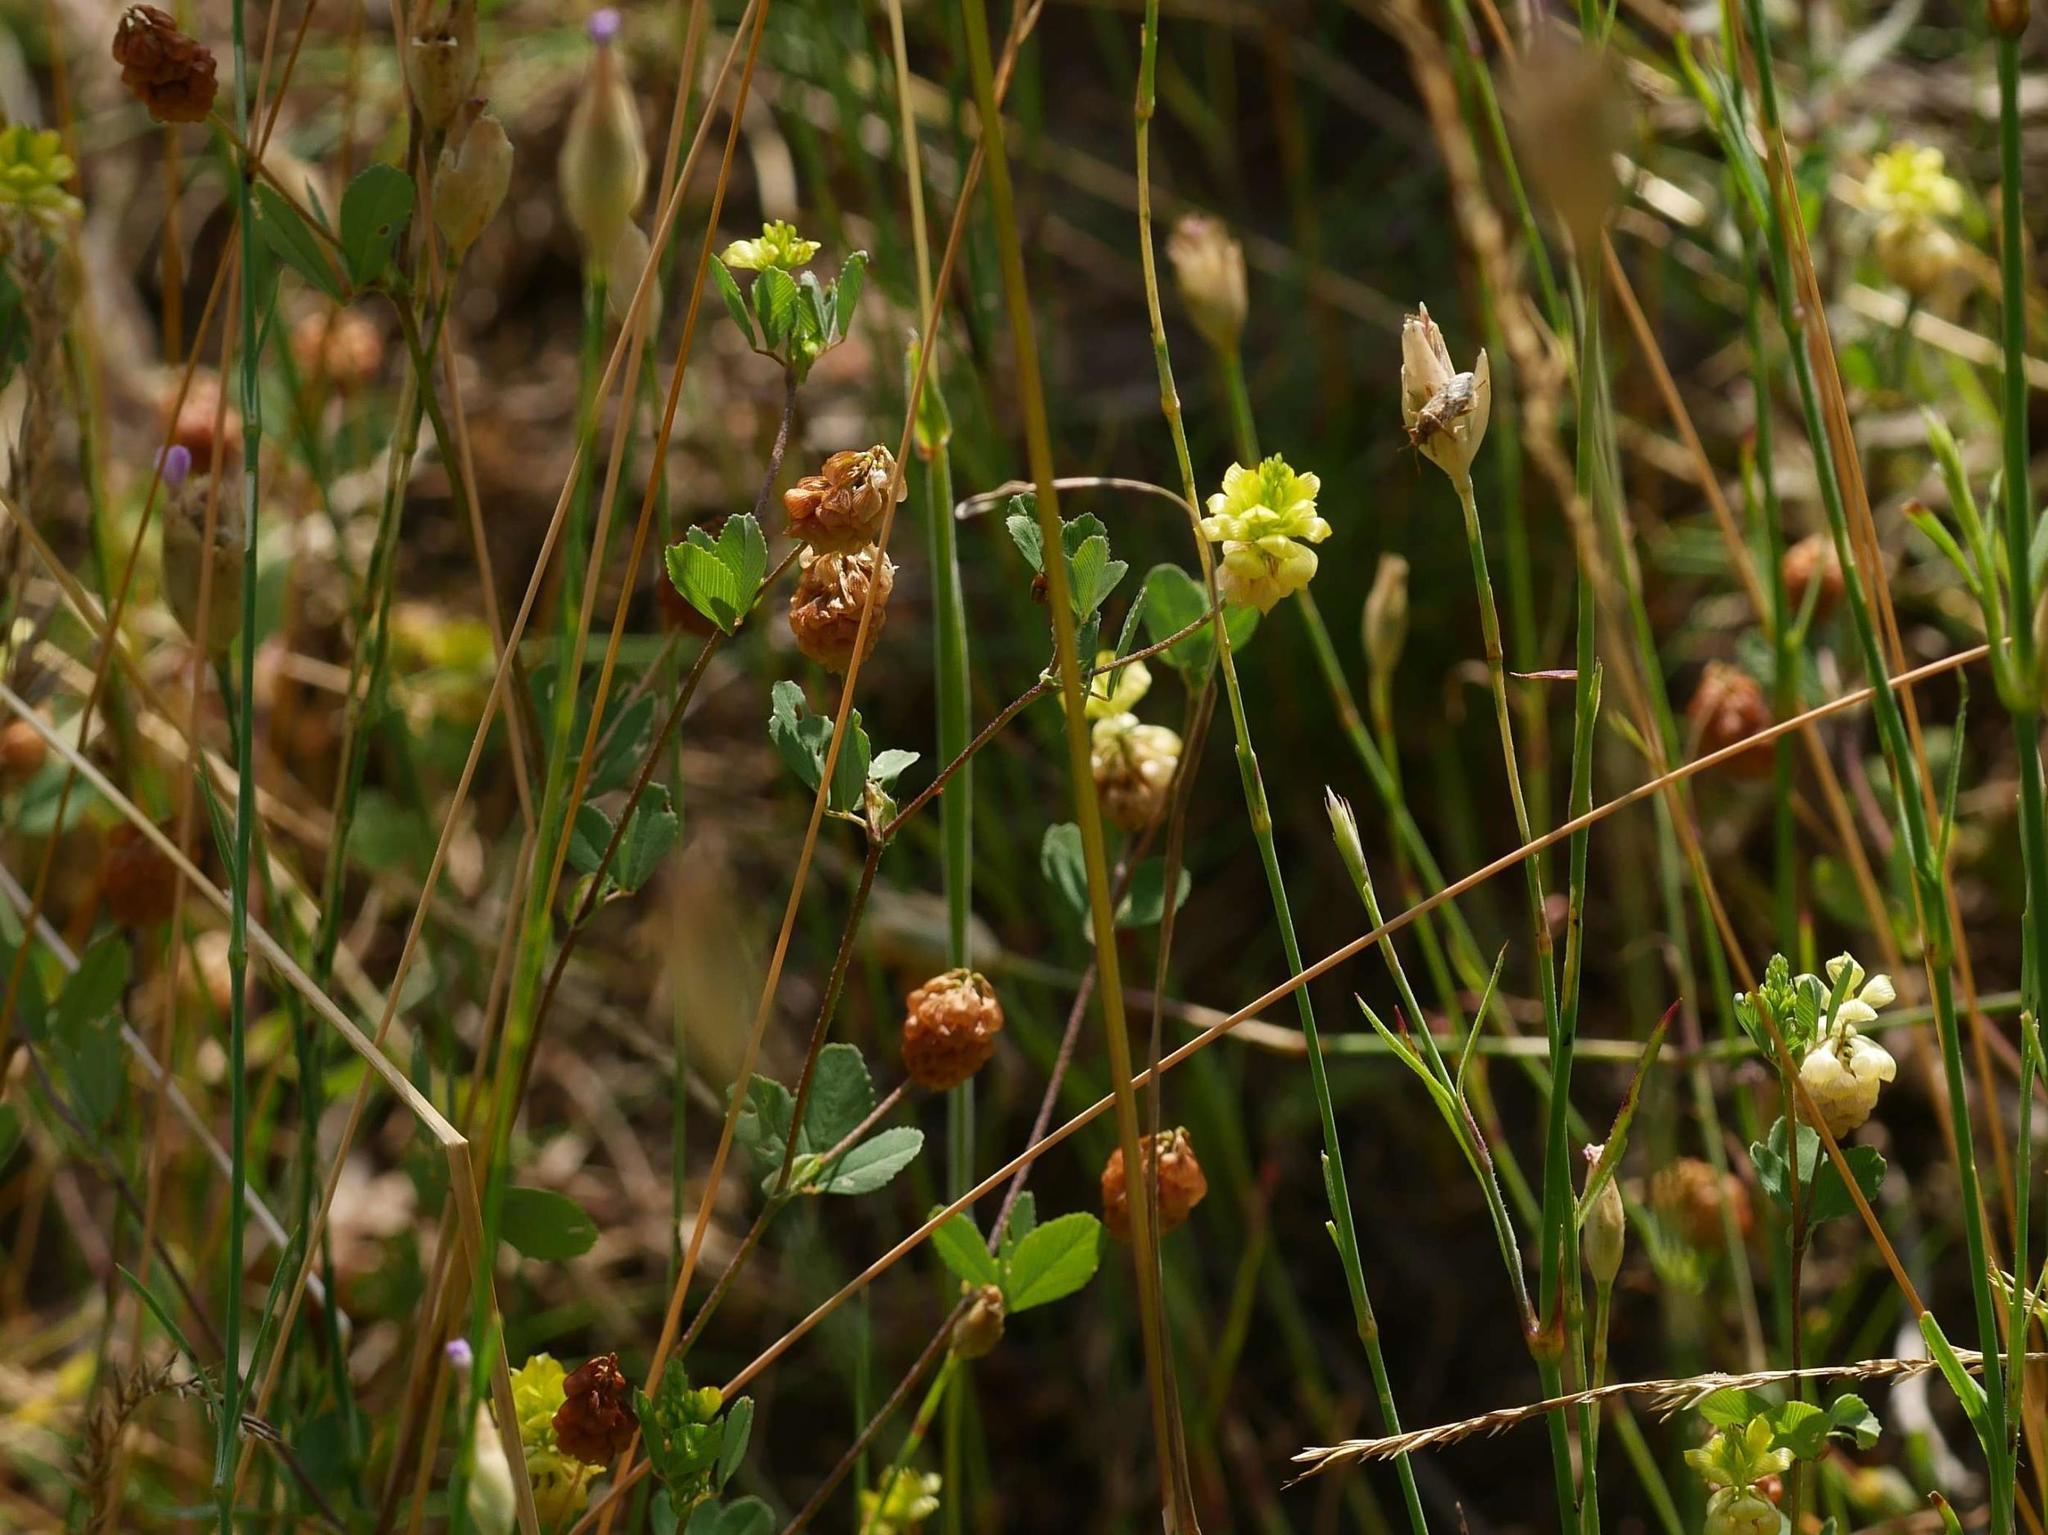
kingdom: Plantae
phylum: Tracheophyta
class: Magnoliopsida
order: Fabales
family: Fabaceae
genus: Trifolium
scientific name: Trifolium campestre
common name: Field clover
